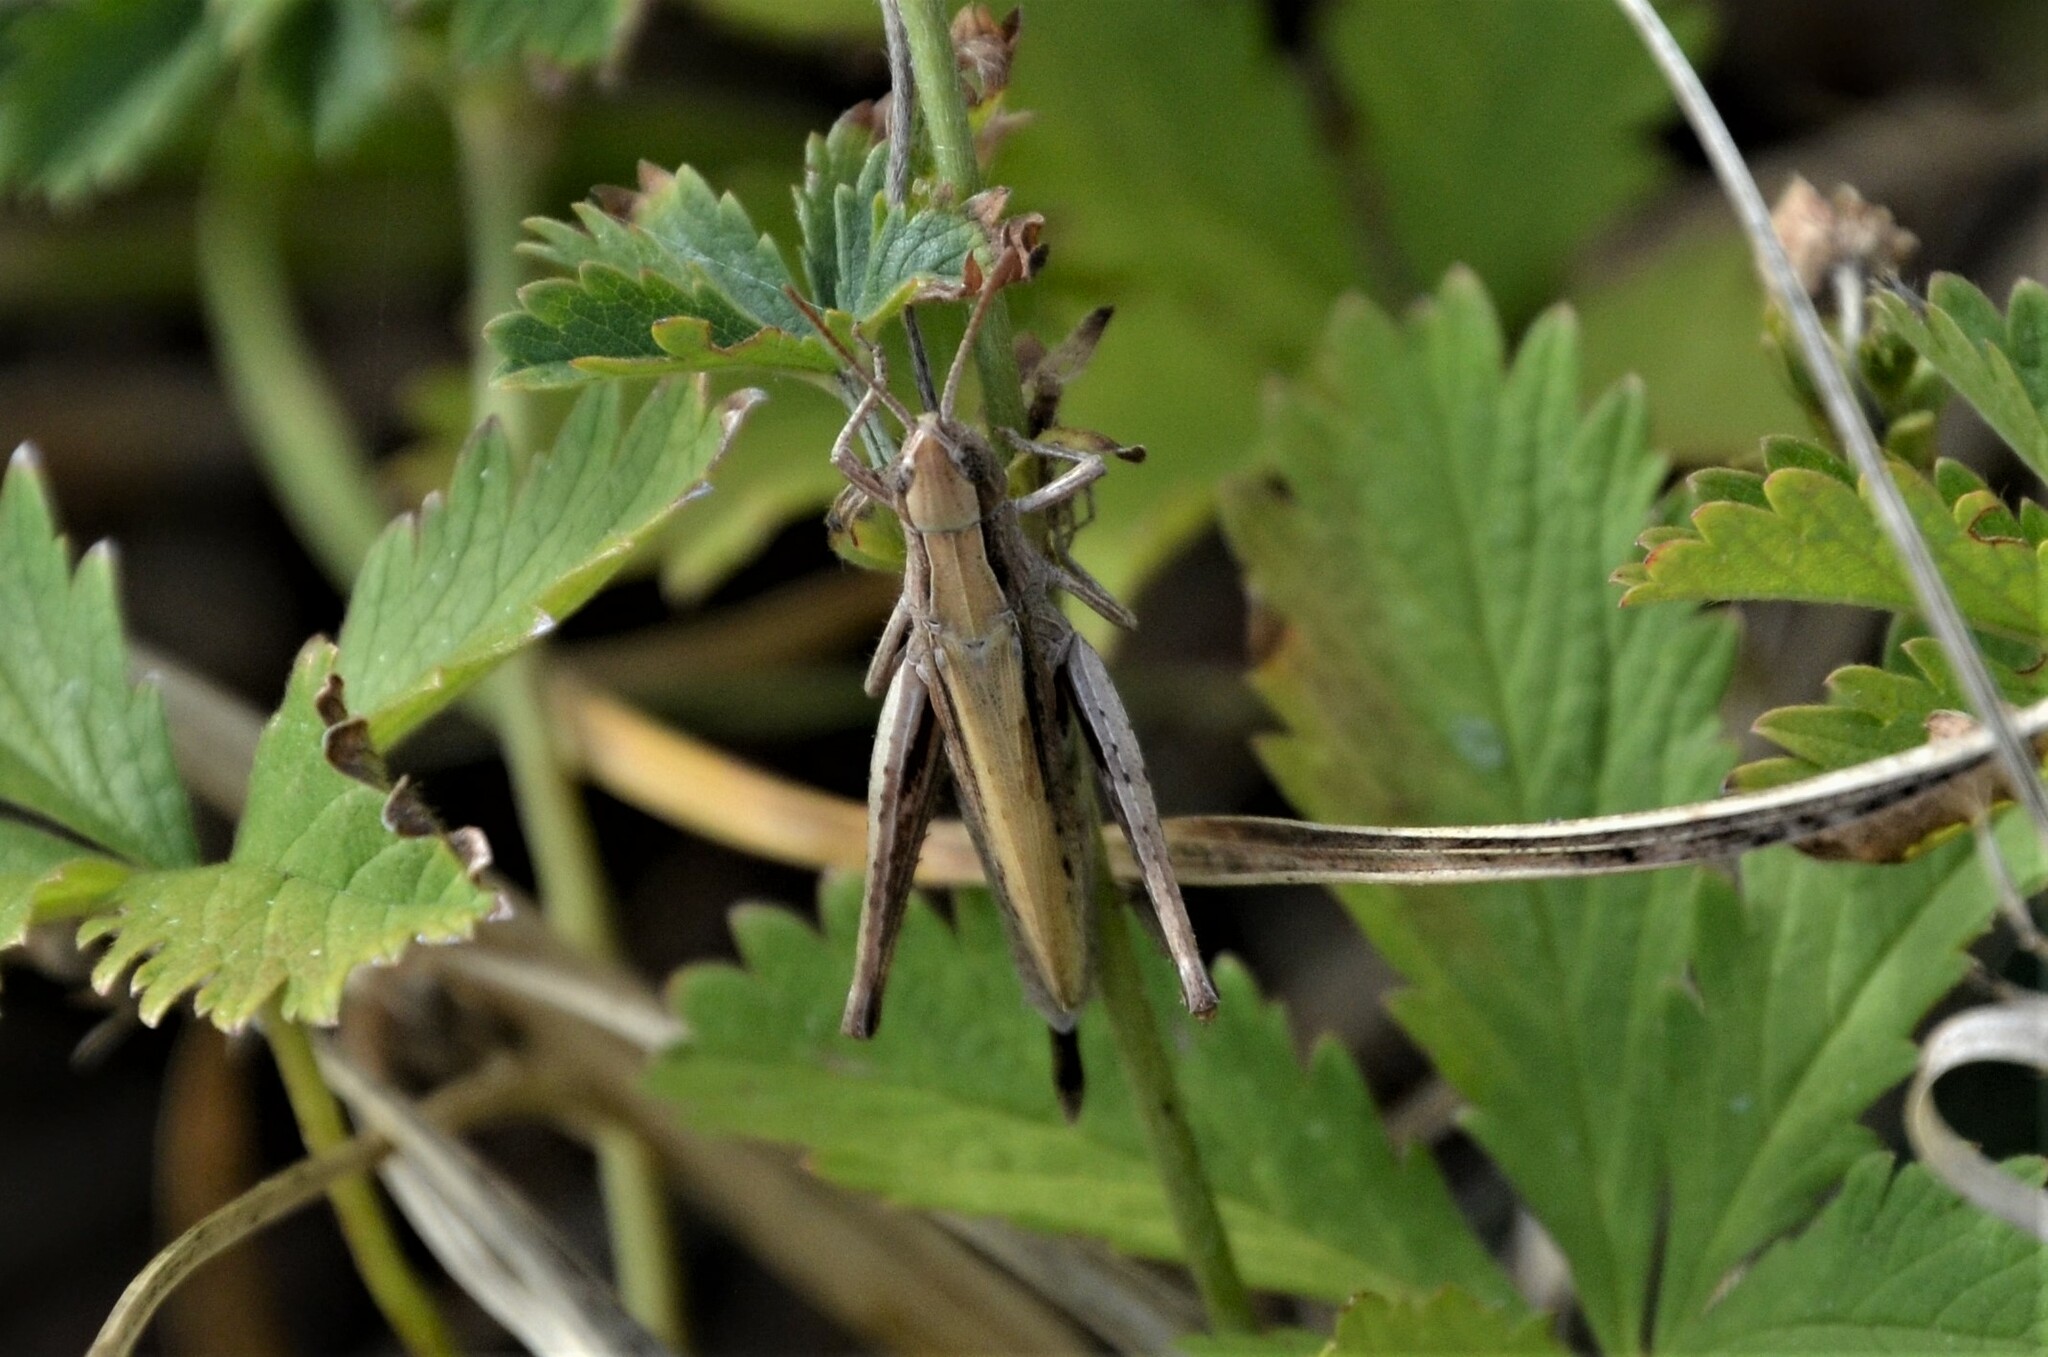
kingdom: Animalia
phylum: Arthropoda
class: Insecta
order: Orthoptera
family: Acrididae
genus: Chorthippus
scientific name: Chorthippus dorsatus
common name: Steppe grasshopper
